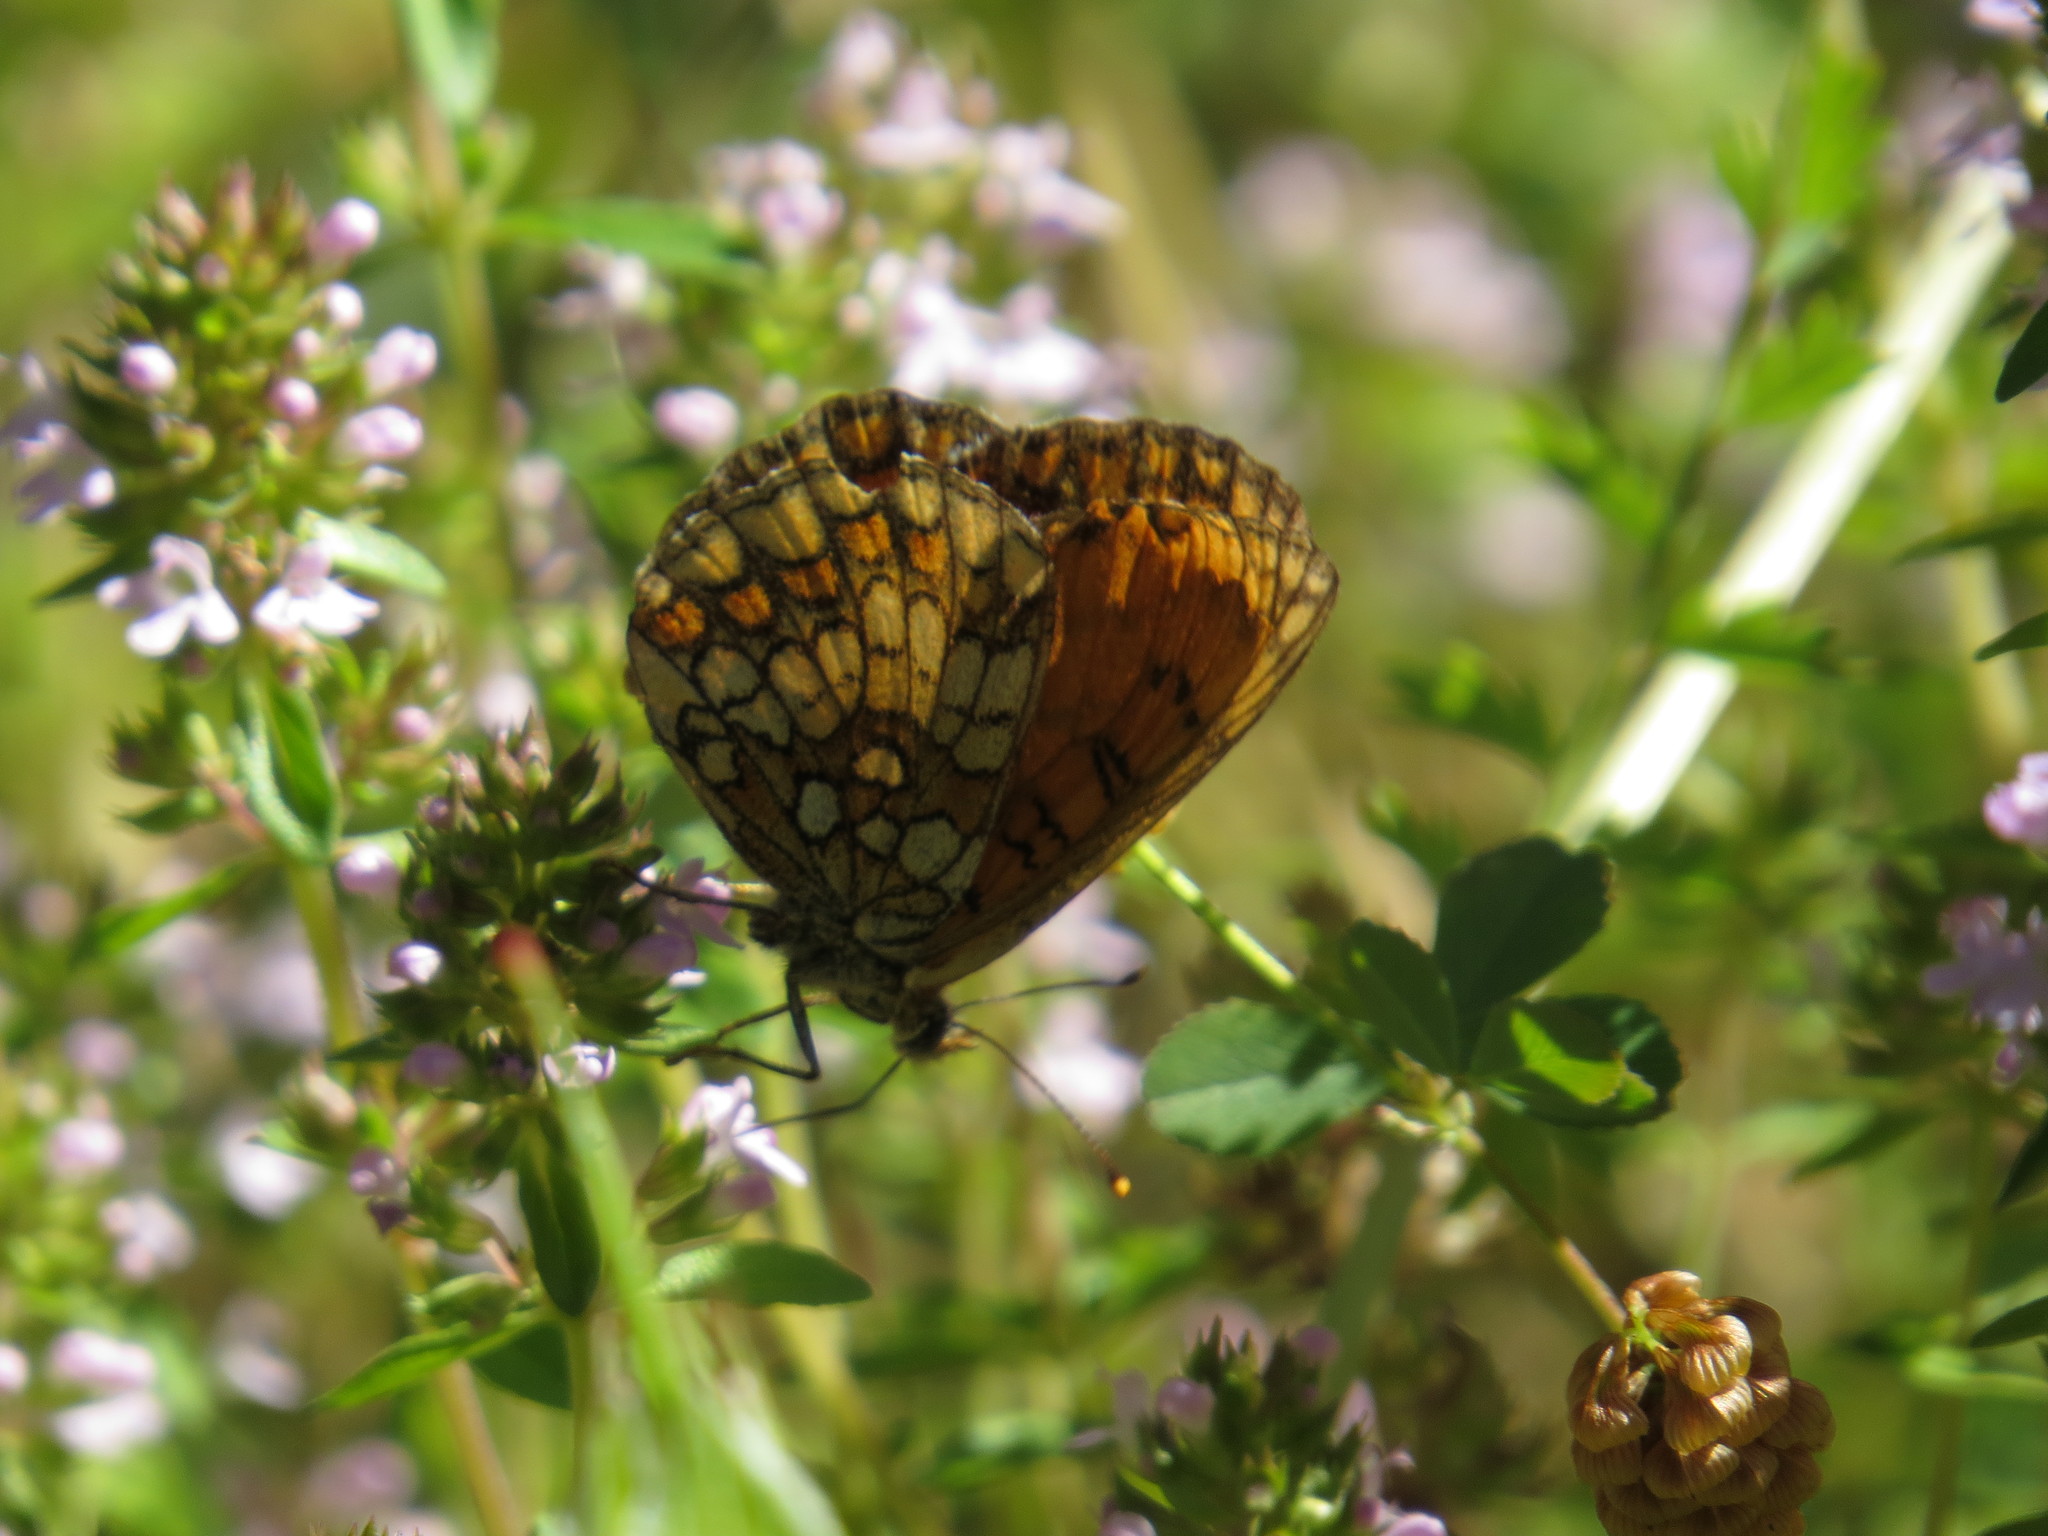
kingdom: Animalia
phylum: Arthropoda
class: Insecta
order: Lepidoptera
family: Nymphalidae
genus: Mellicta
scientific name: Mellicta athalia
